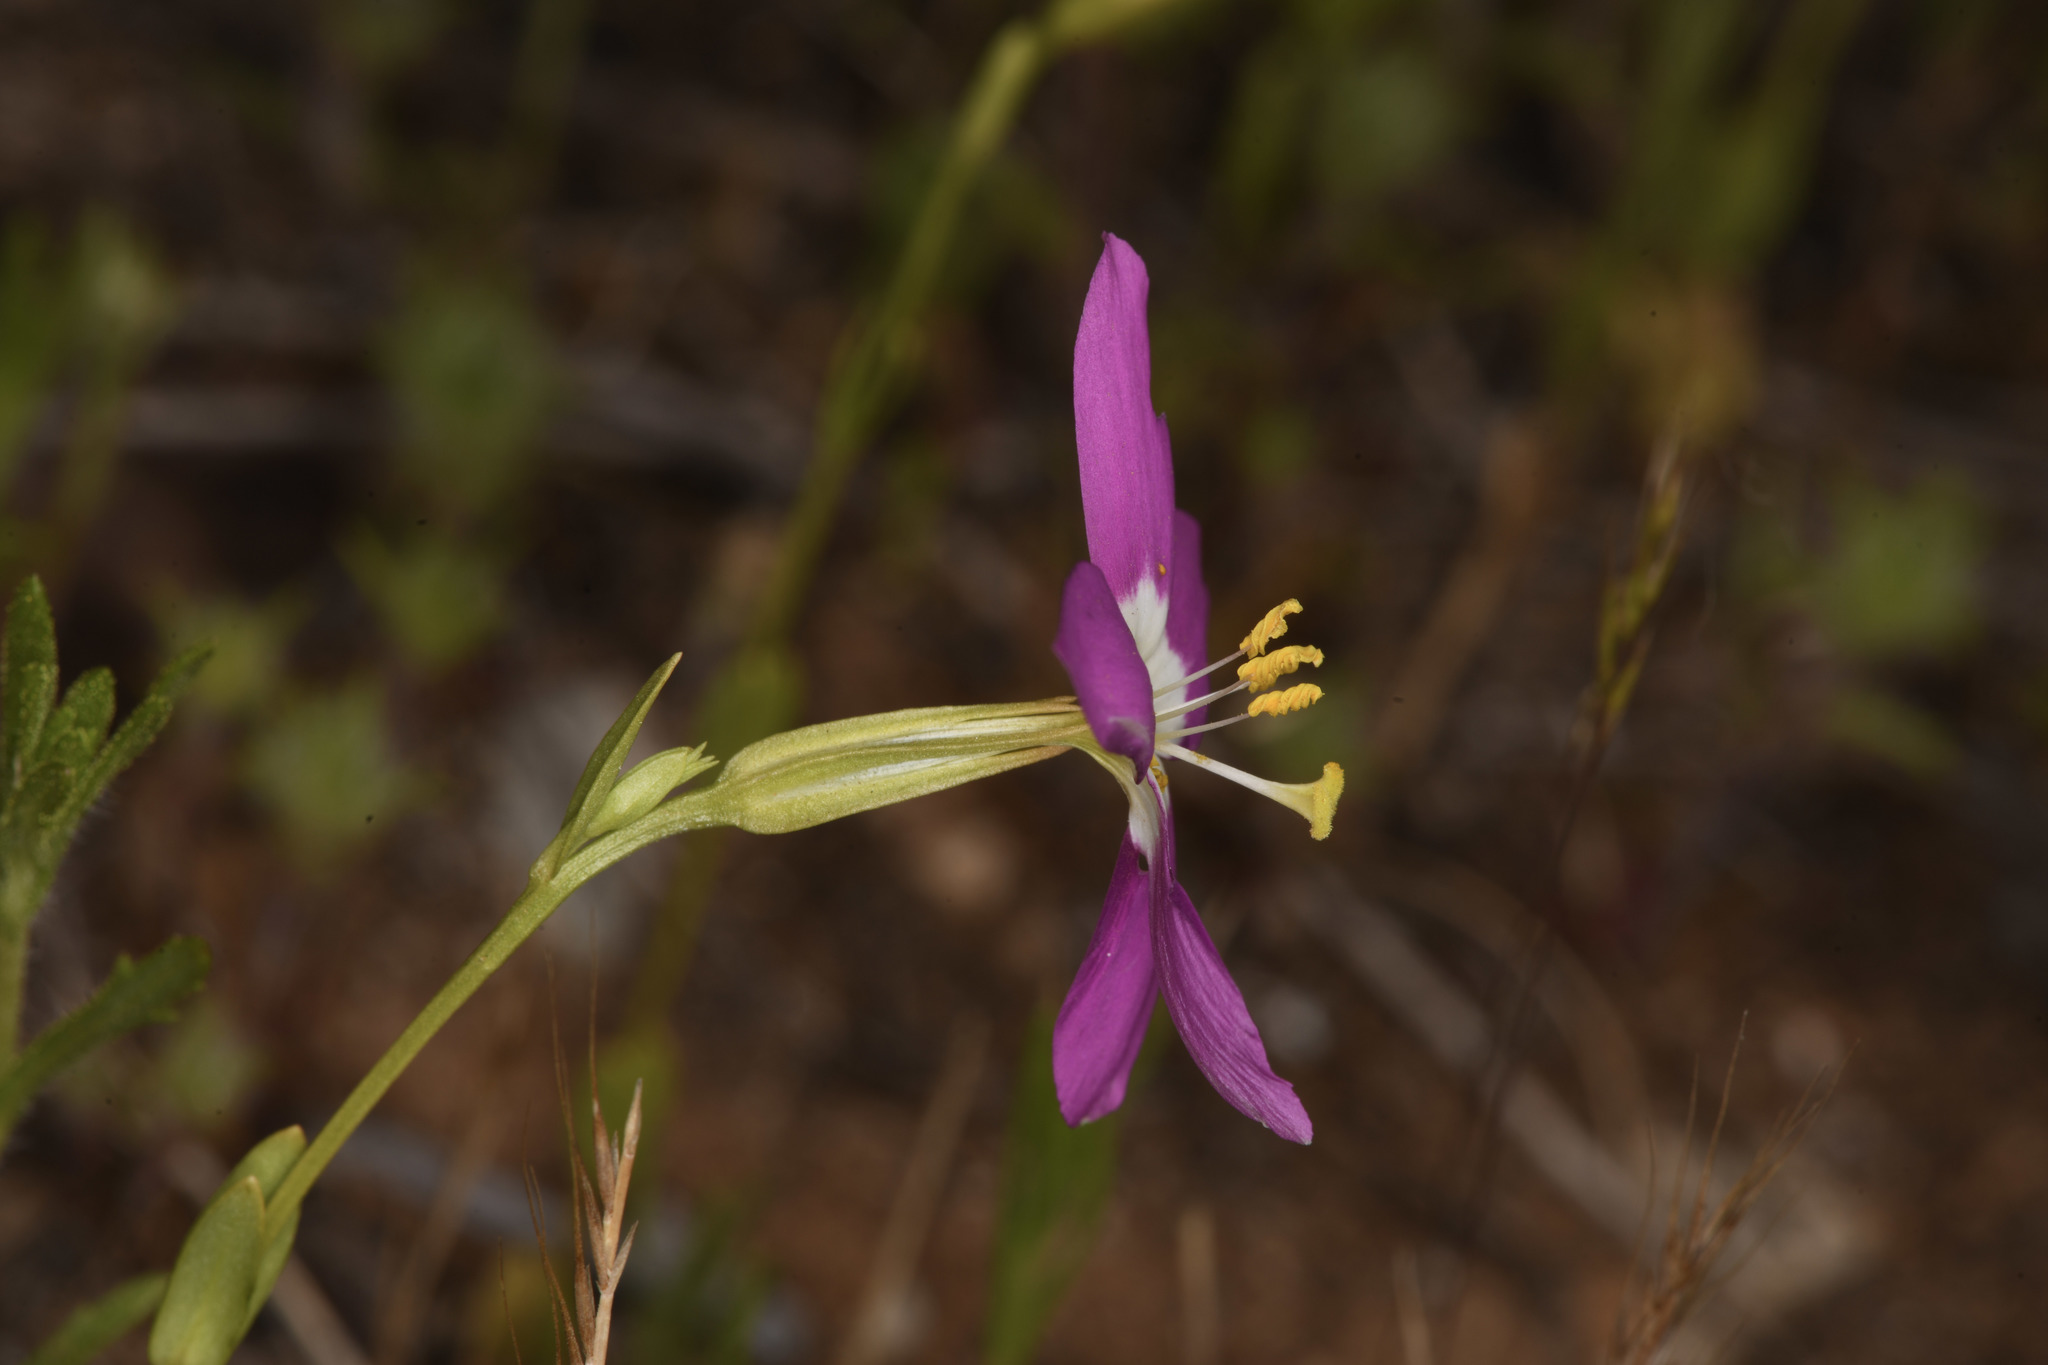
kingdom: Plantae
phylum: Tracheophyta
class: Magnoliopsida
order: Gentianales
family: Gentianaceae
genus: Zeltnera
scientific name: Zeltnera venusta
